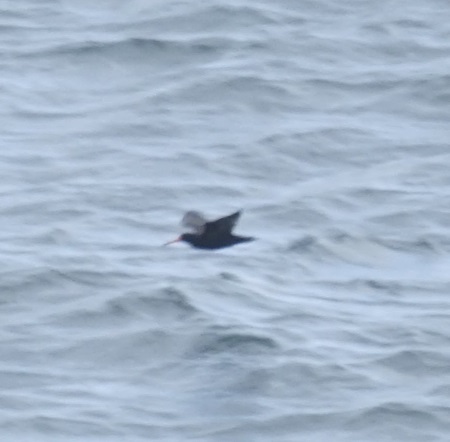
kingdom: Animalia
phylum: Chordata
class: Aves
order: Charadriiformes
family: Haematopodidae
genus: Haematopus
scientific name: Haematopus fuliginosus
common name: Sooty oystercatcher
